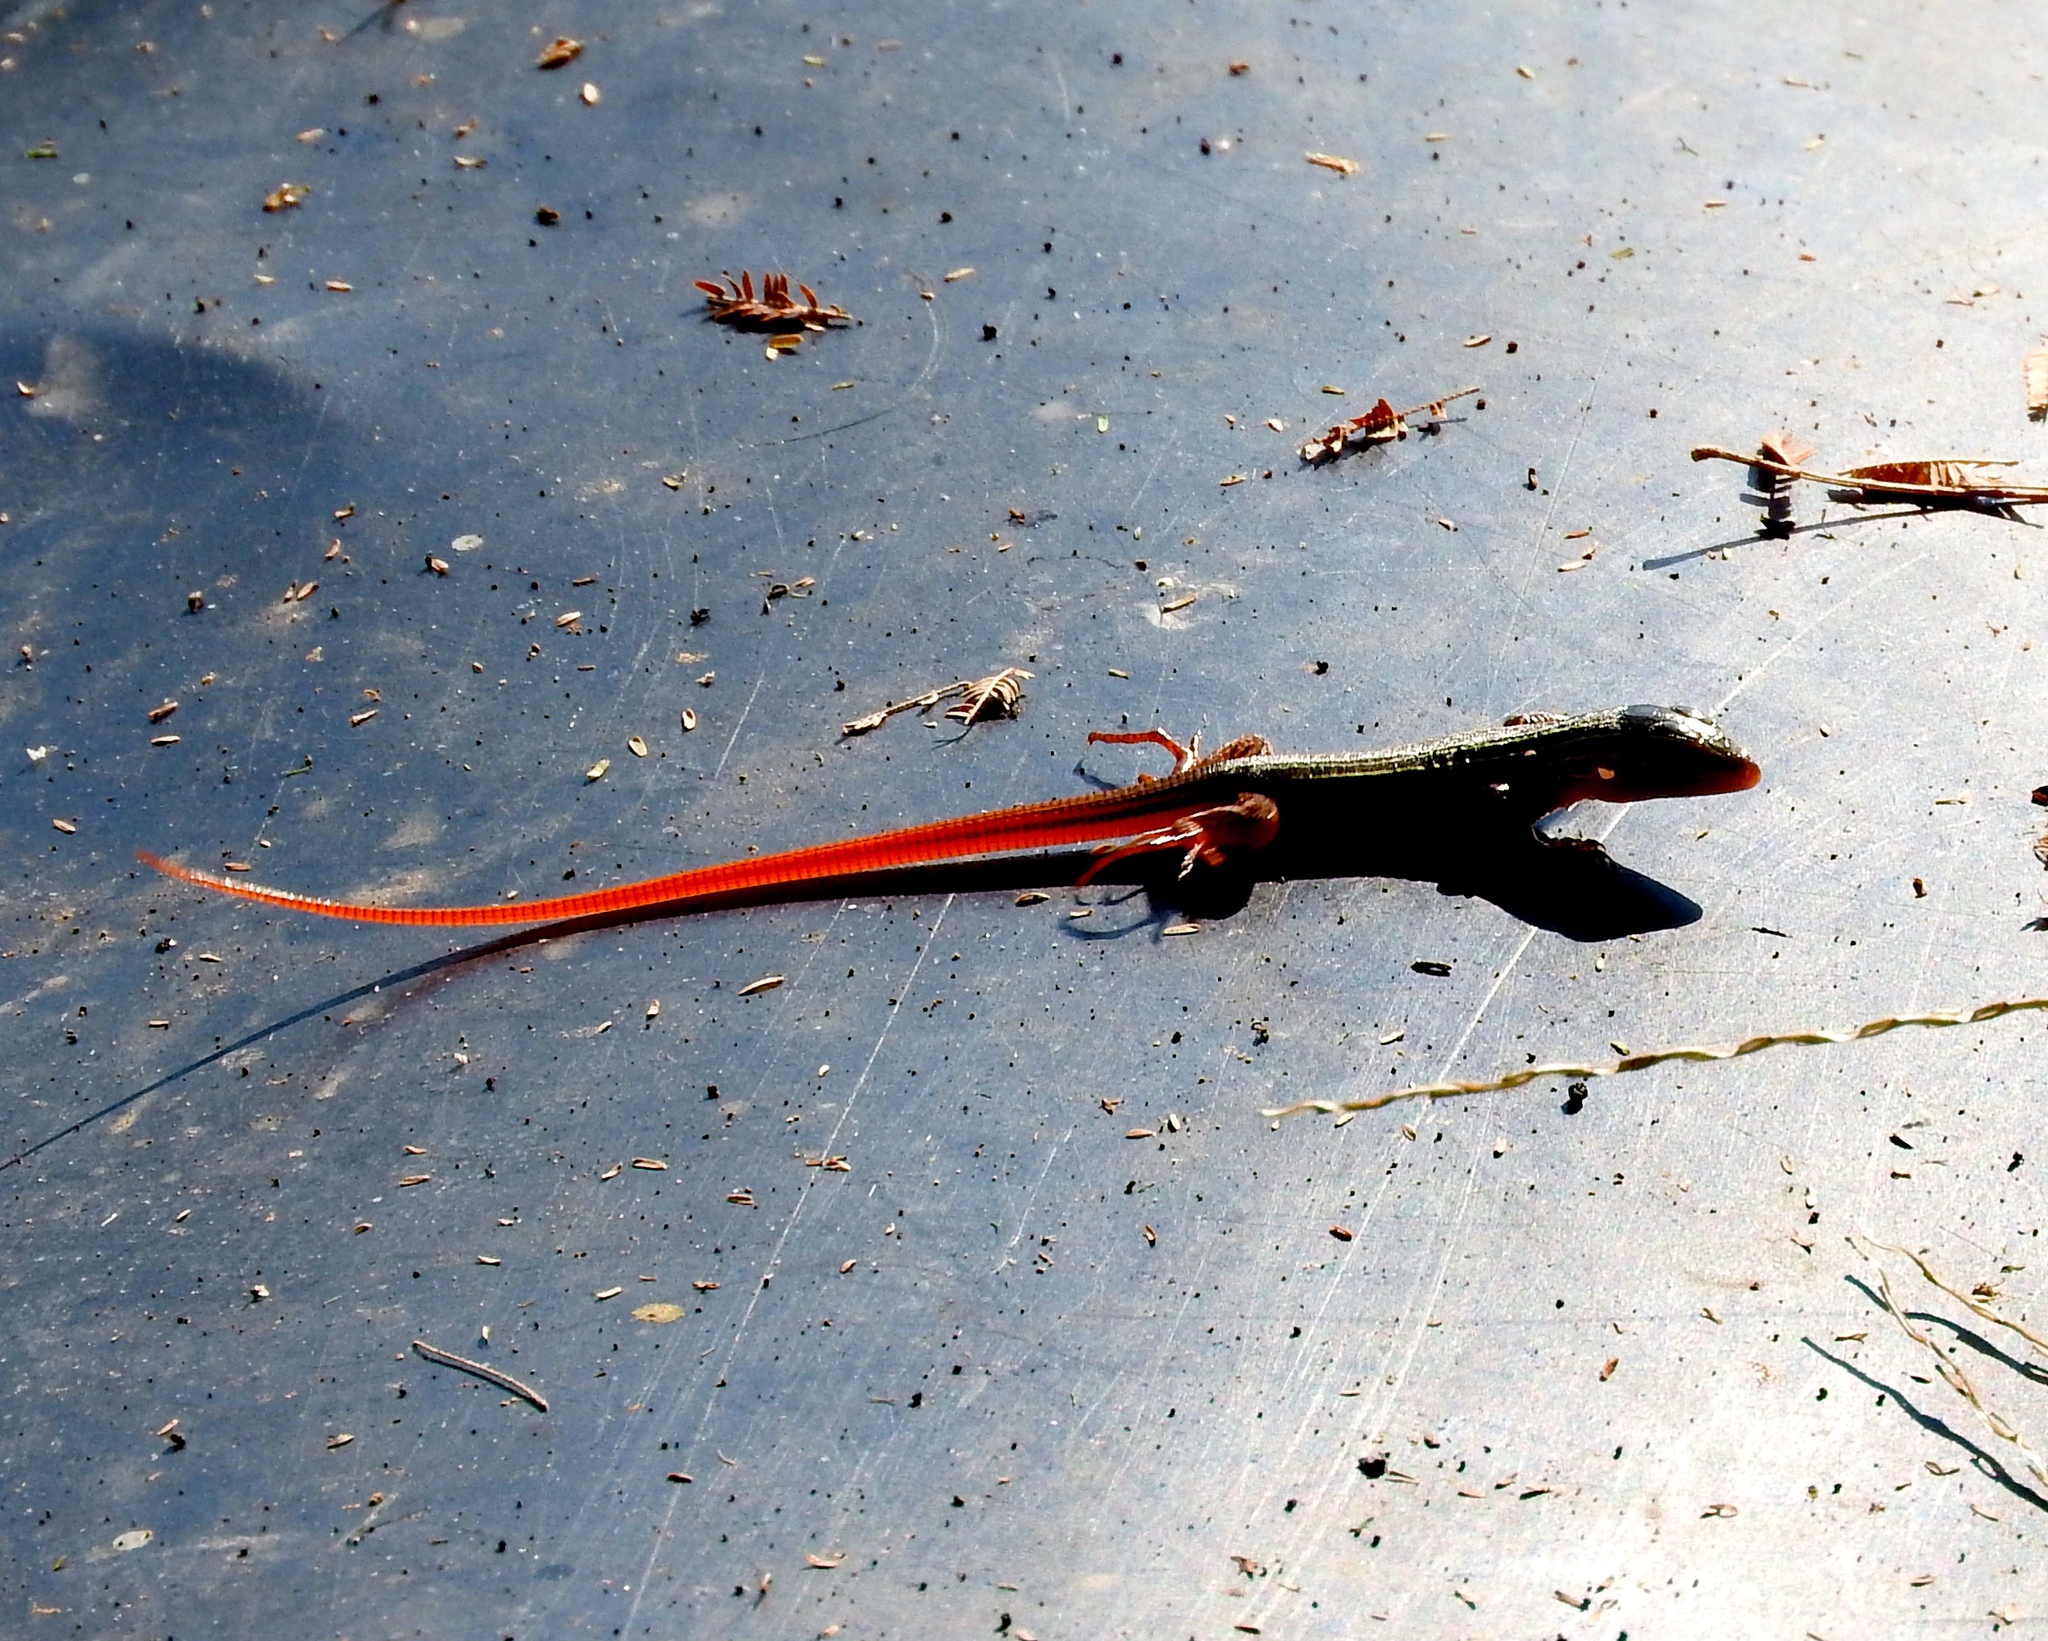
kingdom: Animalia
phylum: Chordata
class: Squamata
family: Teiidae
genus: Aspidoscelis
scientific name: Aspidoscelis costatus
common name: Western mexico whiptail
